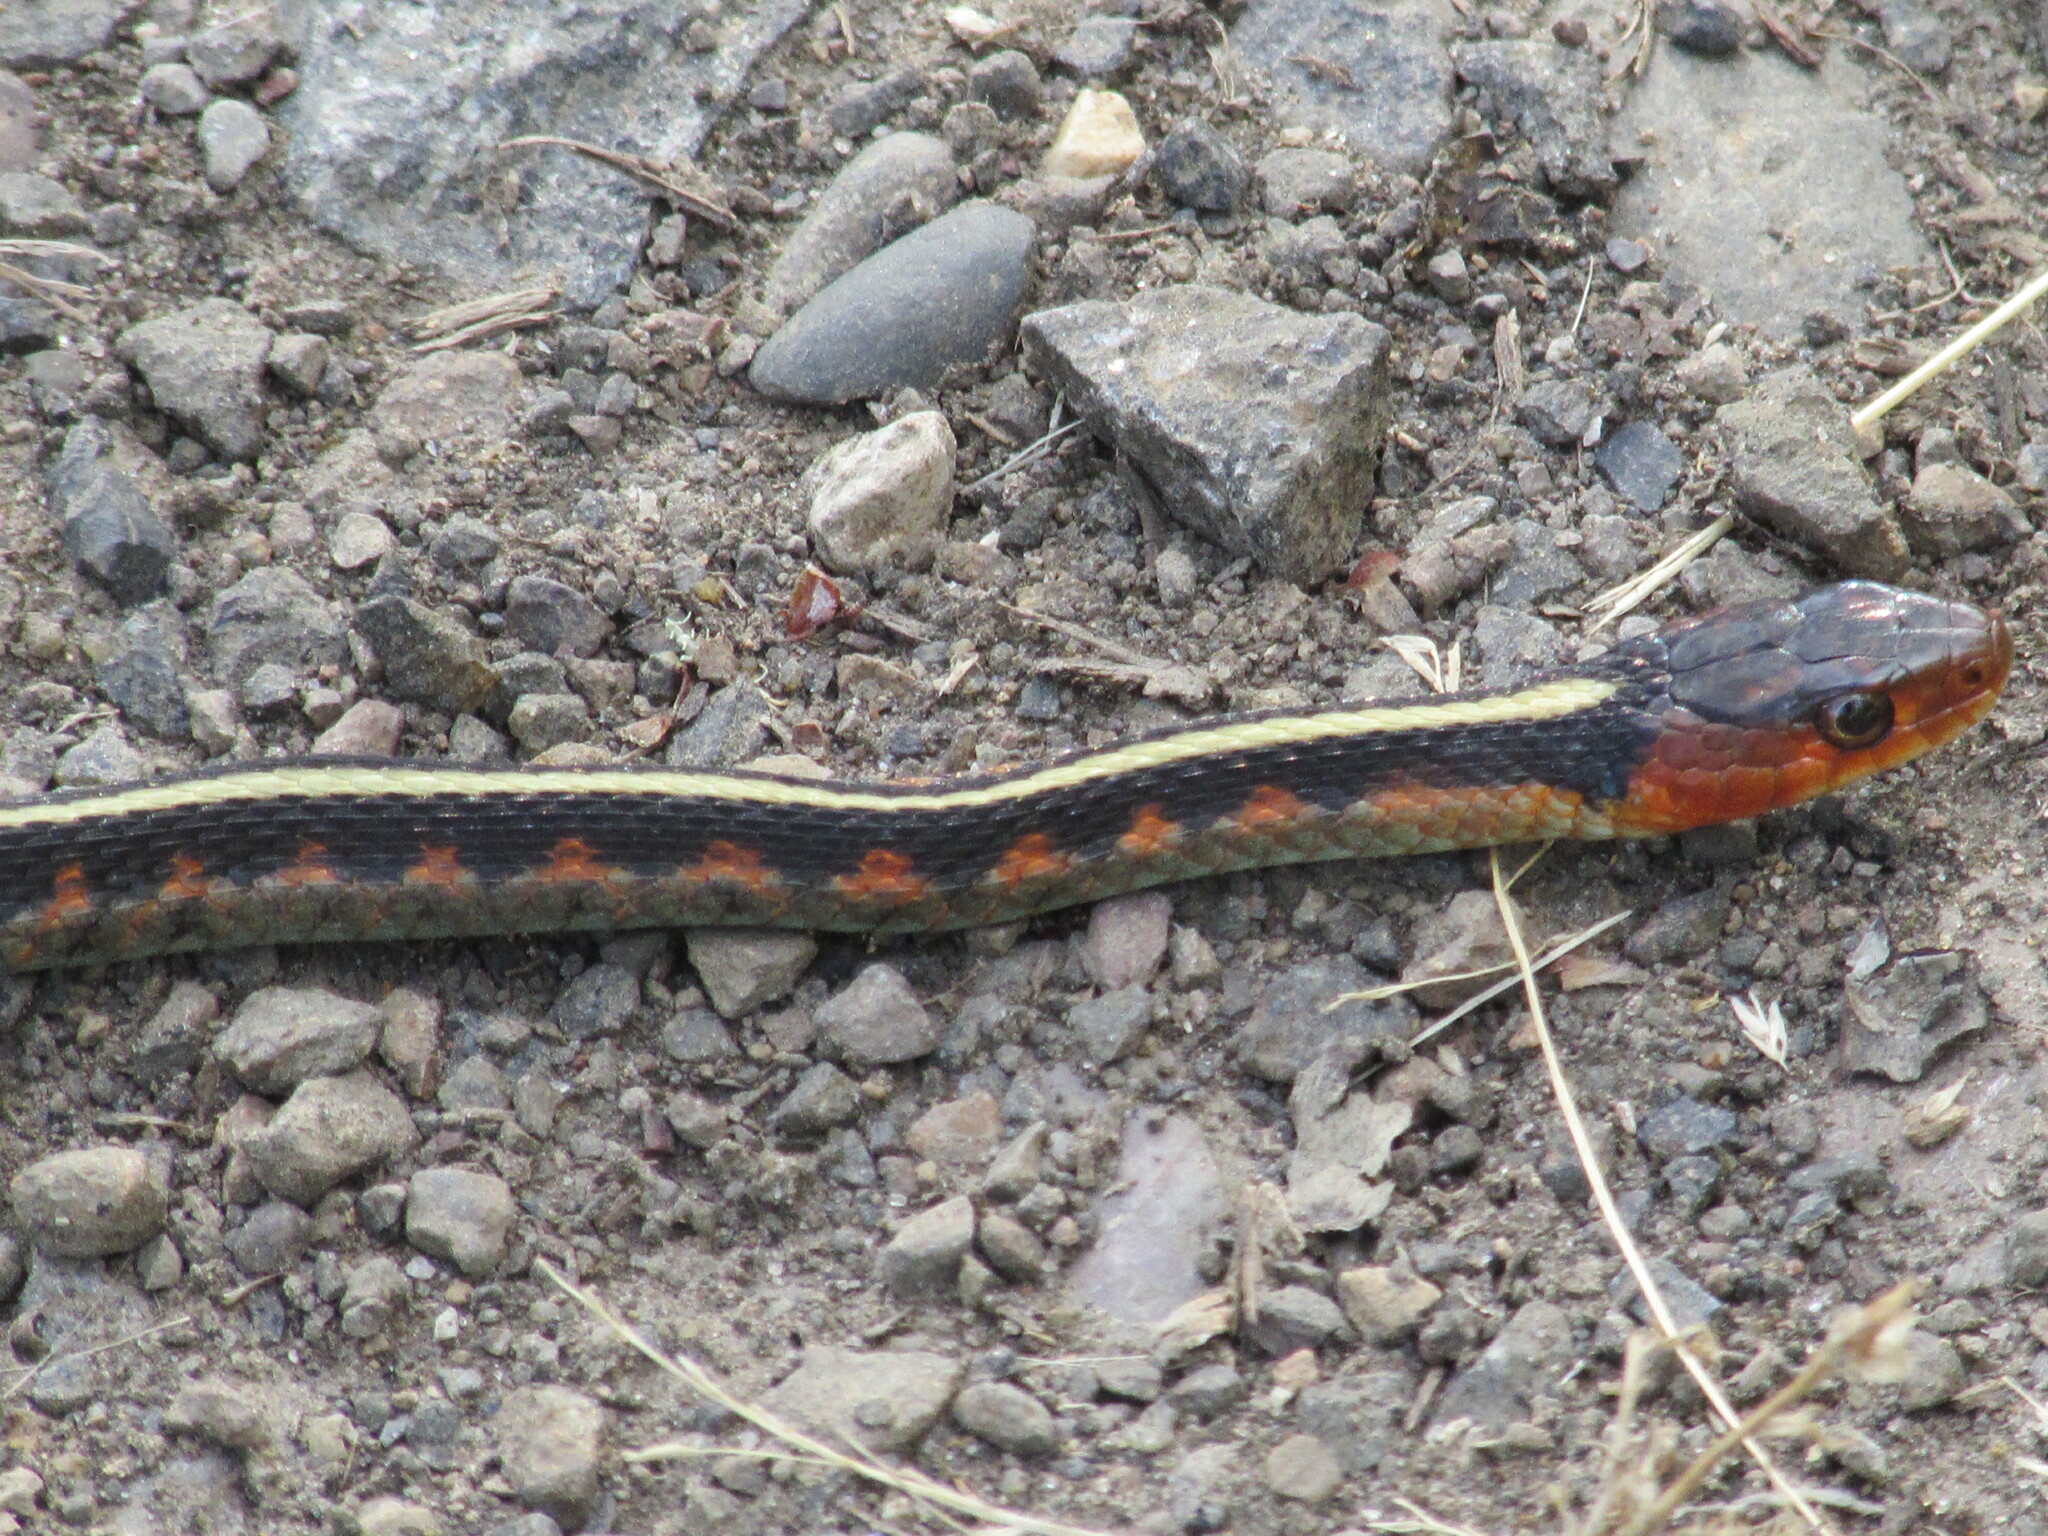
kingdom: Animalia
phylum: Chordata
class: Squamata
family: Colubridae
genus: Thamnophis
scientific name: Thamnophis sirtalis
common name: Common garter snake
